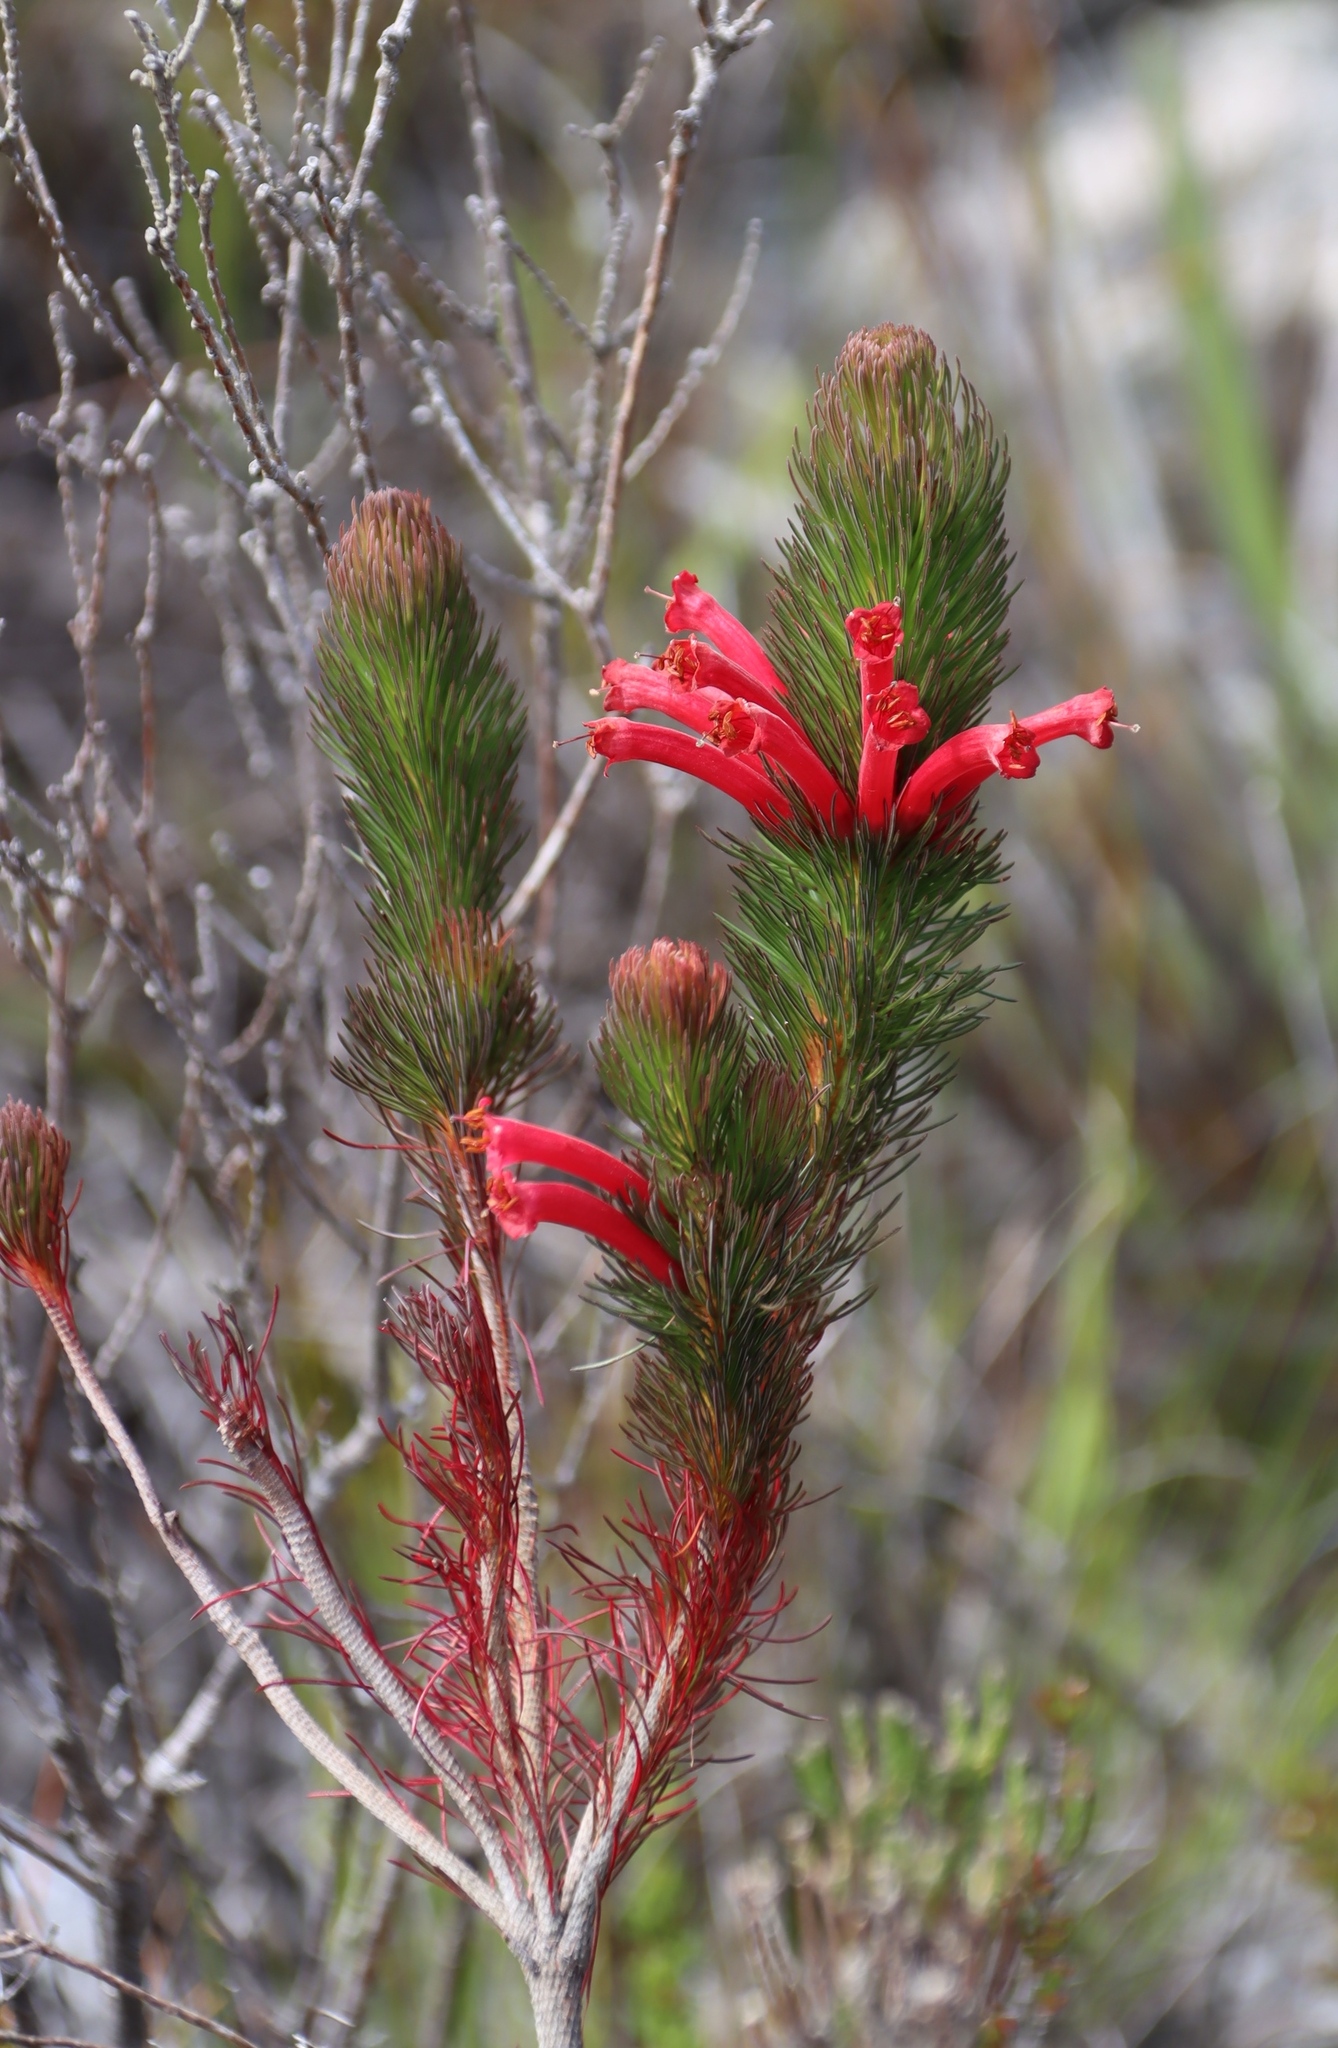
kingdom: Plantae
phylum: Tracheophyta
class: Magnoliopsida
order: Ericales
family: Ericaceae
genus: Erica
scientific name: Erica vestita
